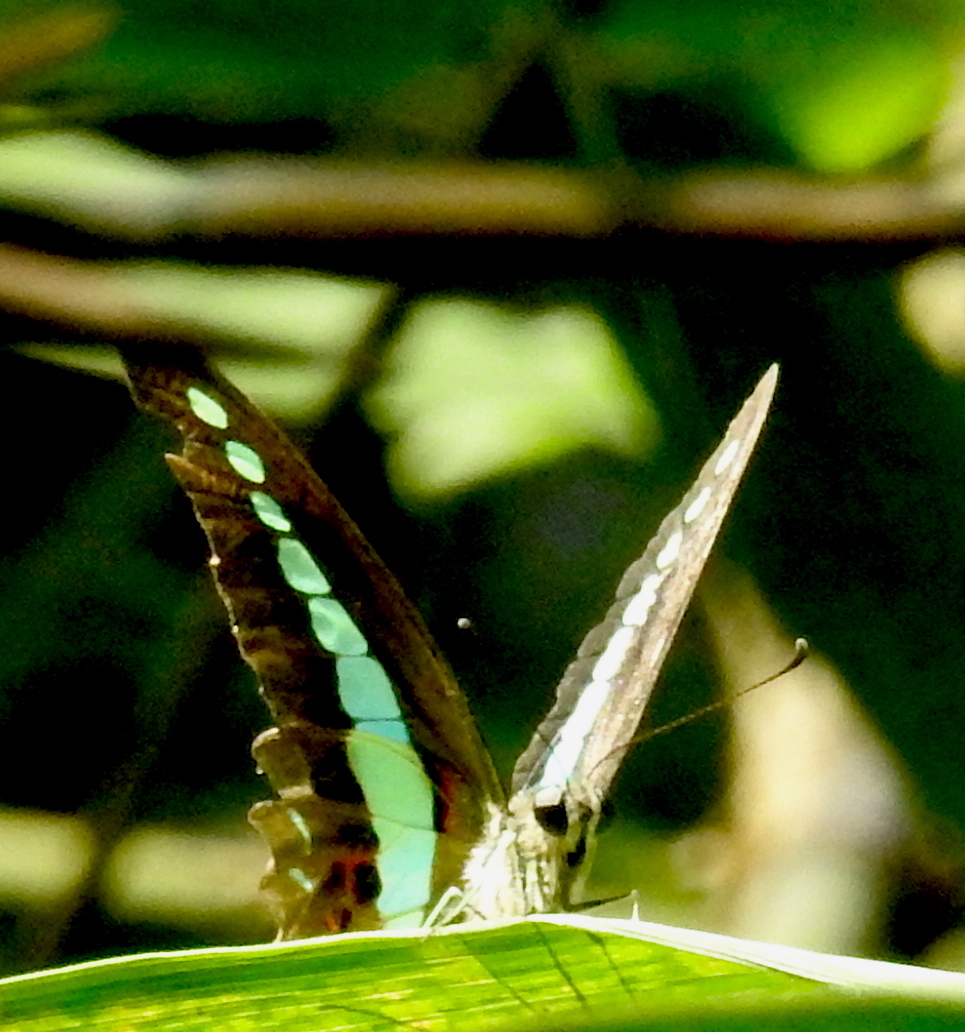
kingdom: Animalia
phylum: Arthropoda
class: Insecta
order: Lepidoptera
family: Papilionidae
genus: Graphium
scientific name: Graphium
